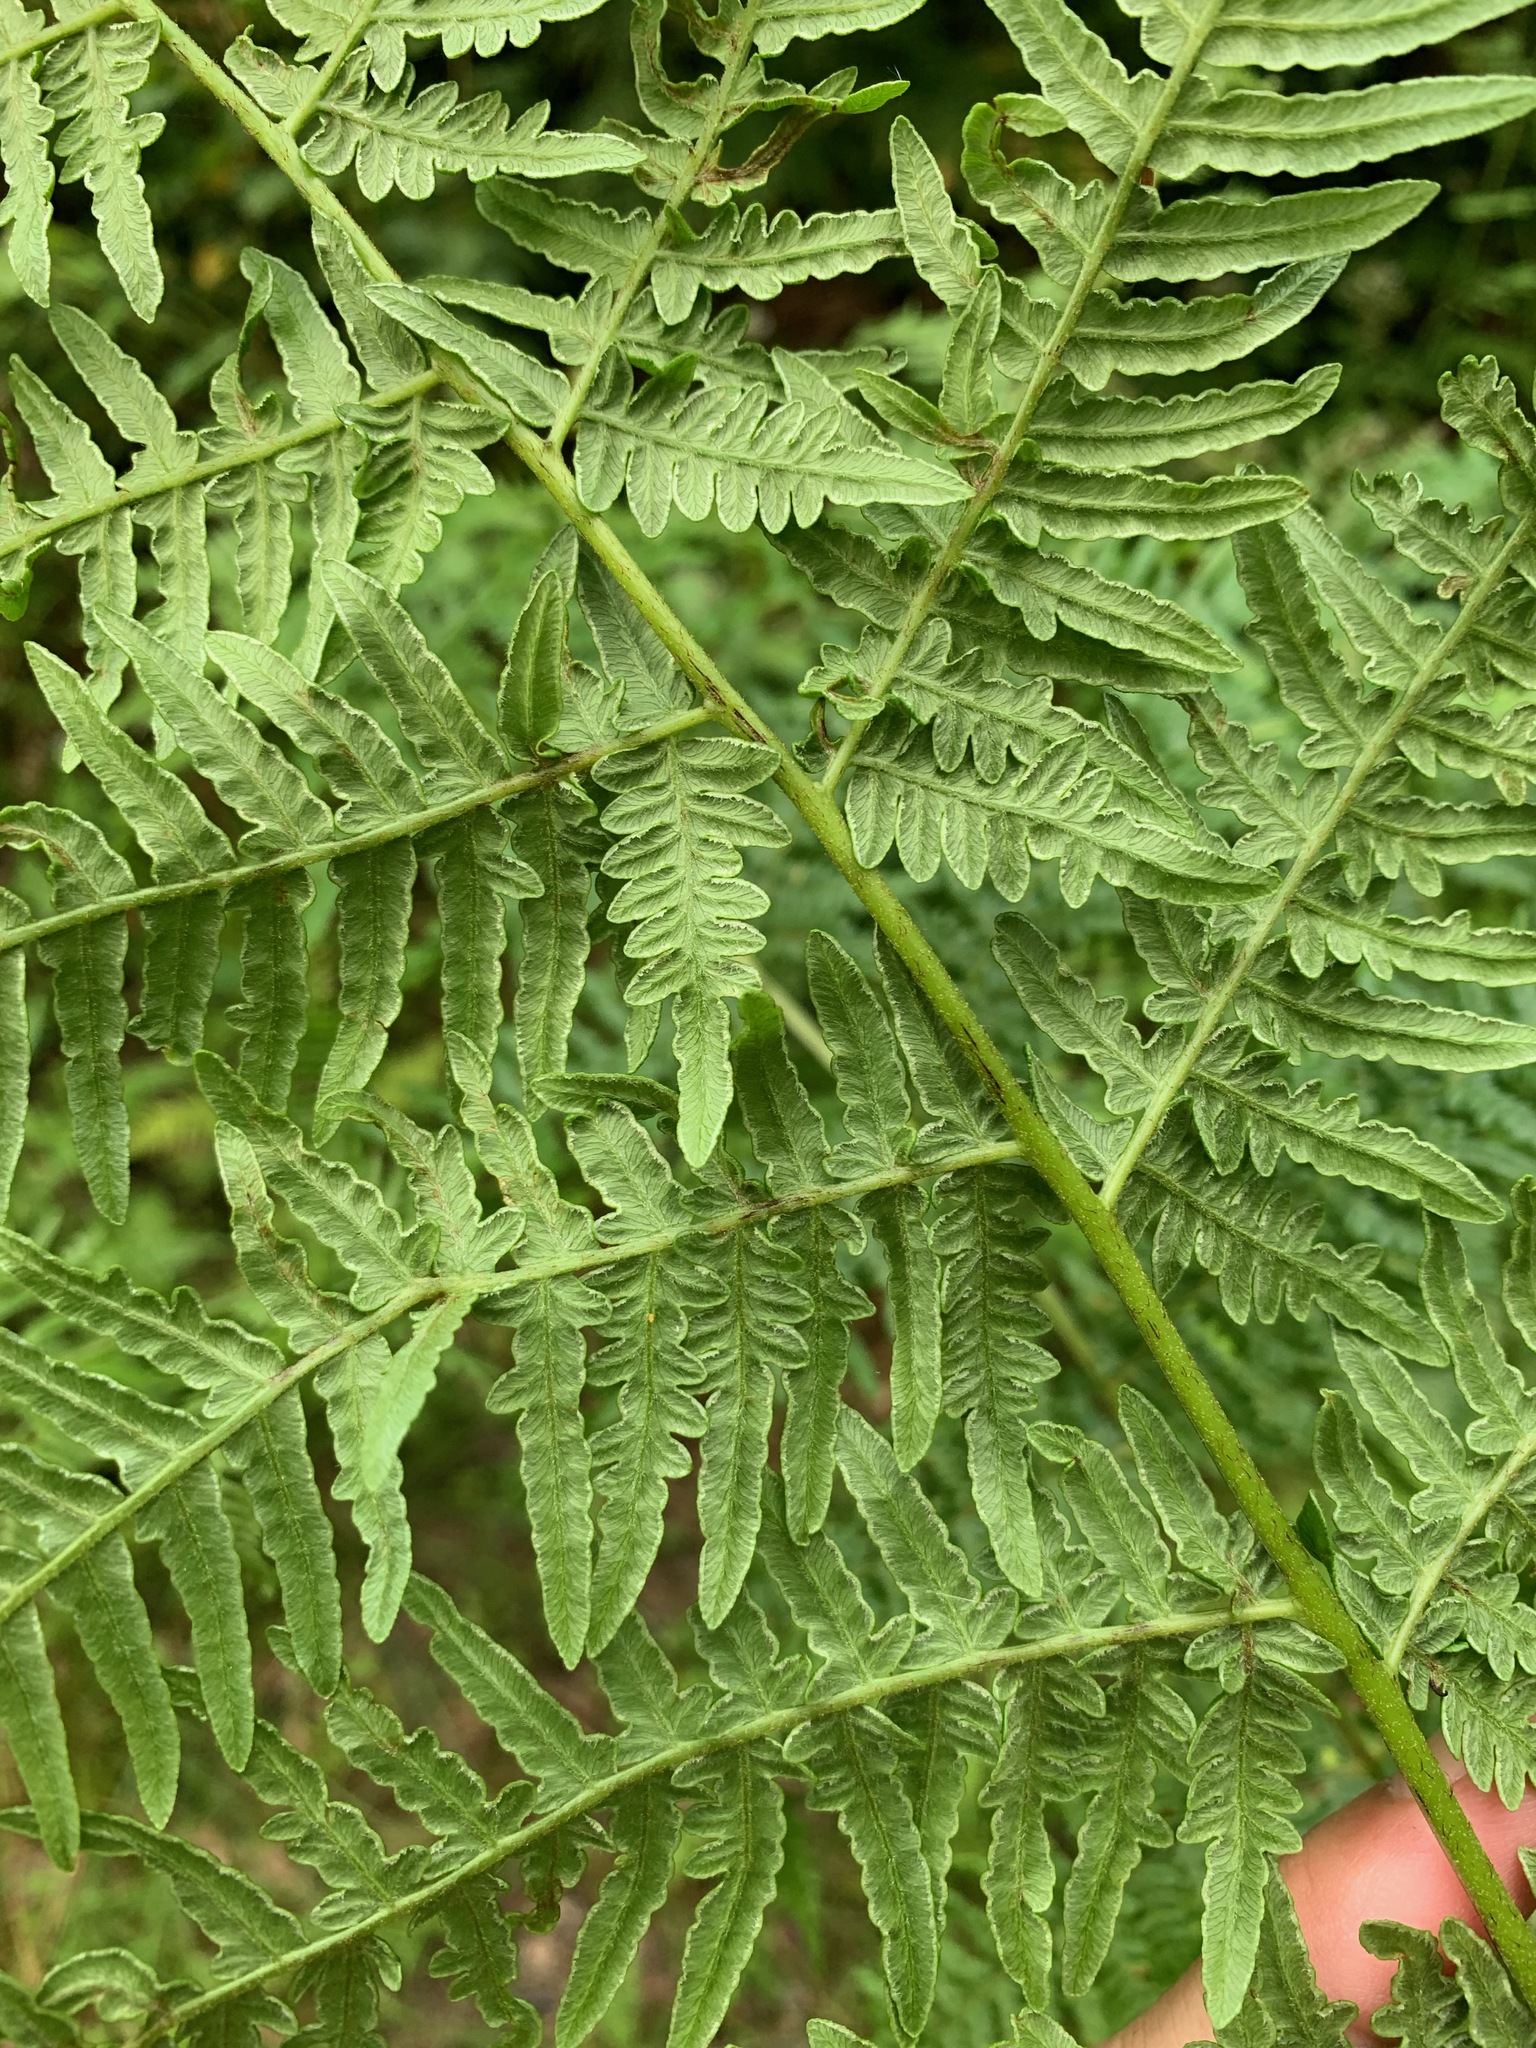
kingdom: Plantae
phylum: Tracheophyta
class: Polypodiopsida
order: Polypodiales
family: Dennstaedtiaceae
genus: Pteridium
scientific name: Pteridium aquilinum
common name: Bracken
